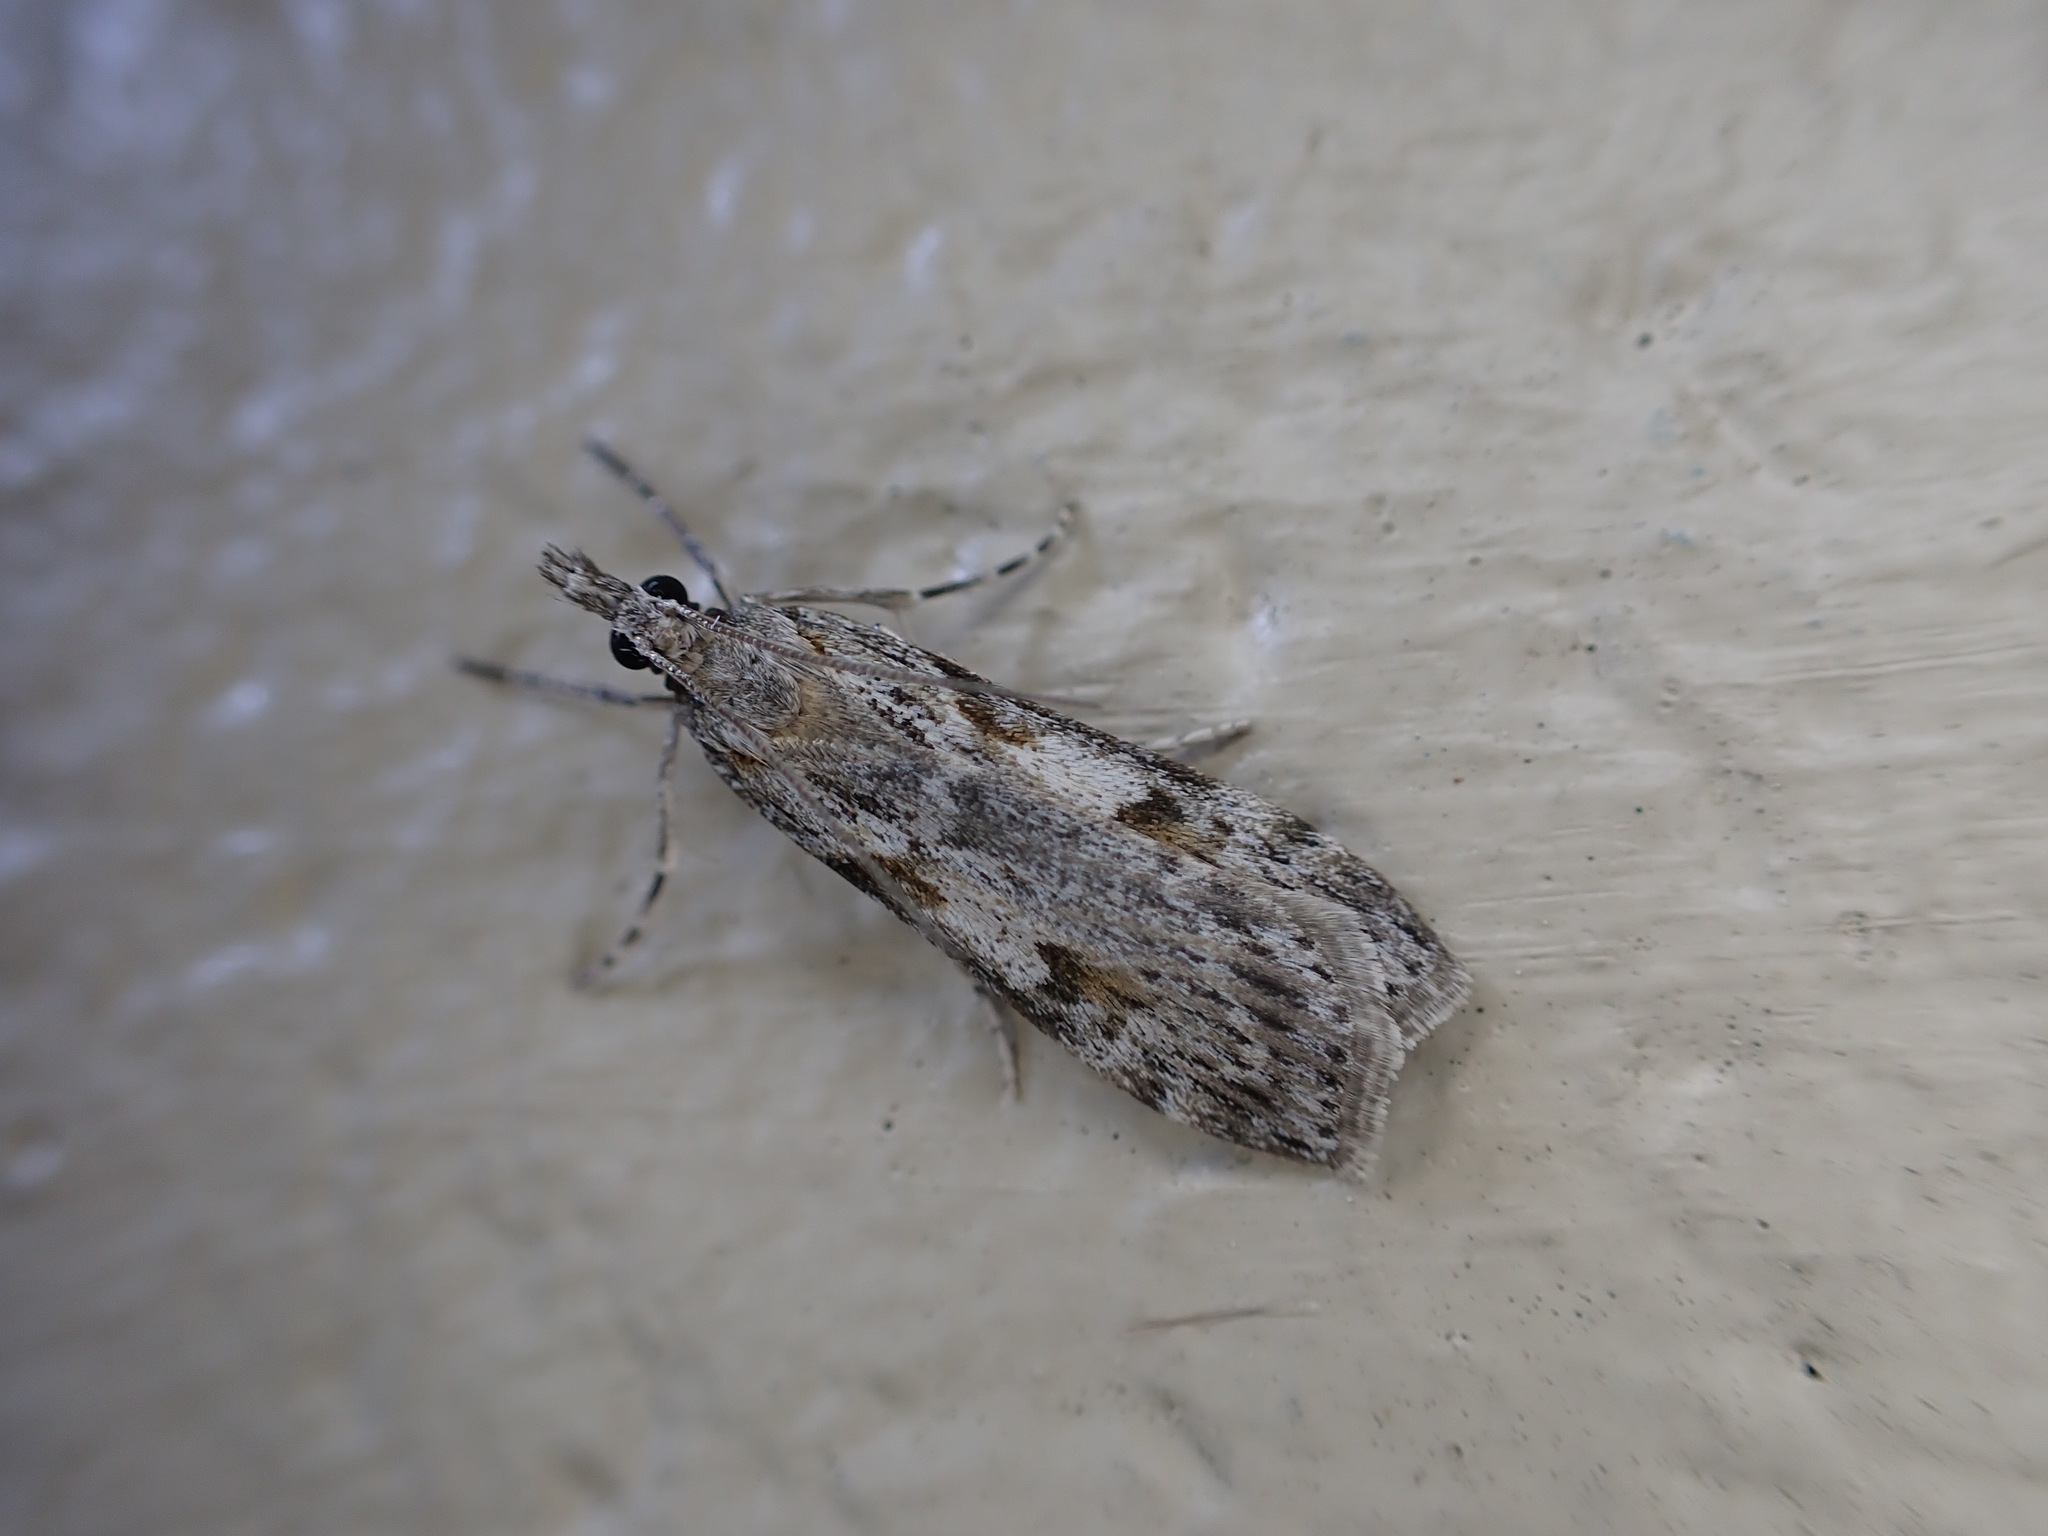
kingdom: Animalia
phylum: Arthropoda
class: Insecta
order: Lepidoptera
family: Crambidae
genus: Scoparia
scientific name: Scoparia halopis
